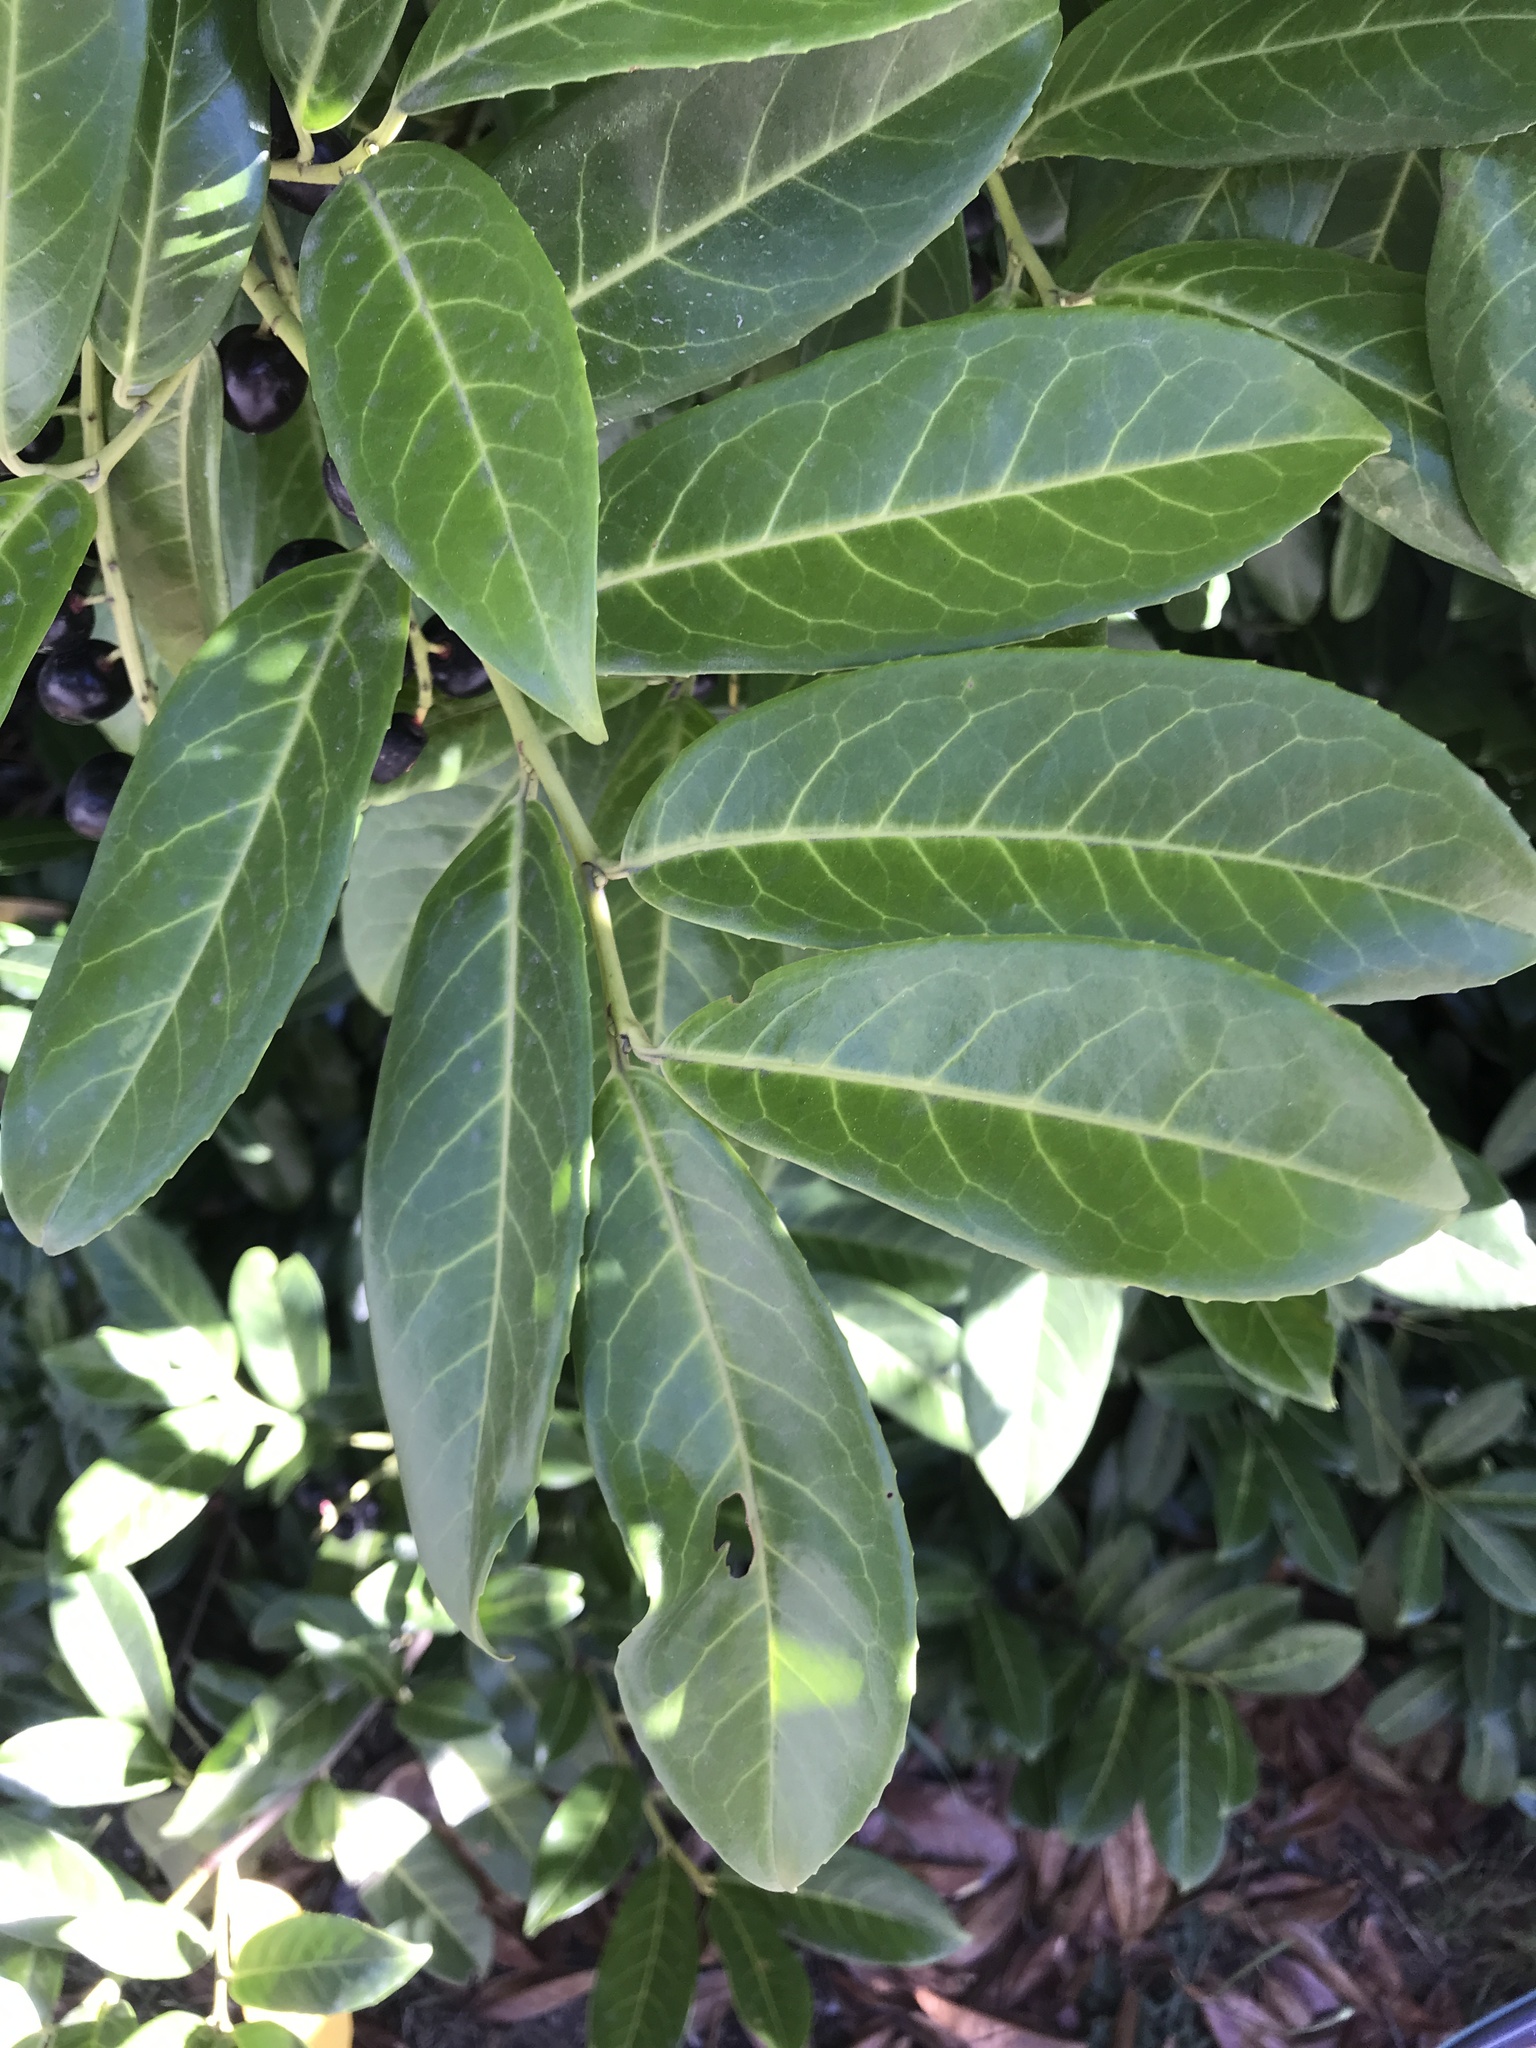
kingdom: Plantae
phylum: Tracheophyta
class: Magnoliopsida
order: Rosales
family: Rosaceae
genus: Prunus
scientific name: Prunus laurocerasus
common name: Cherry laurel
